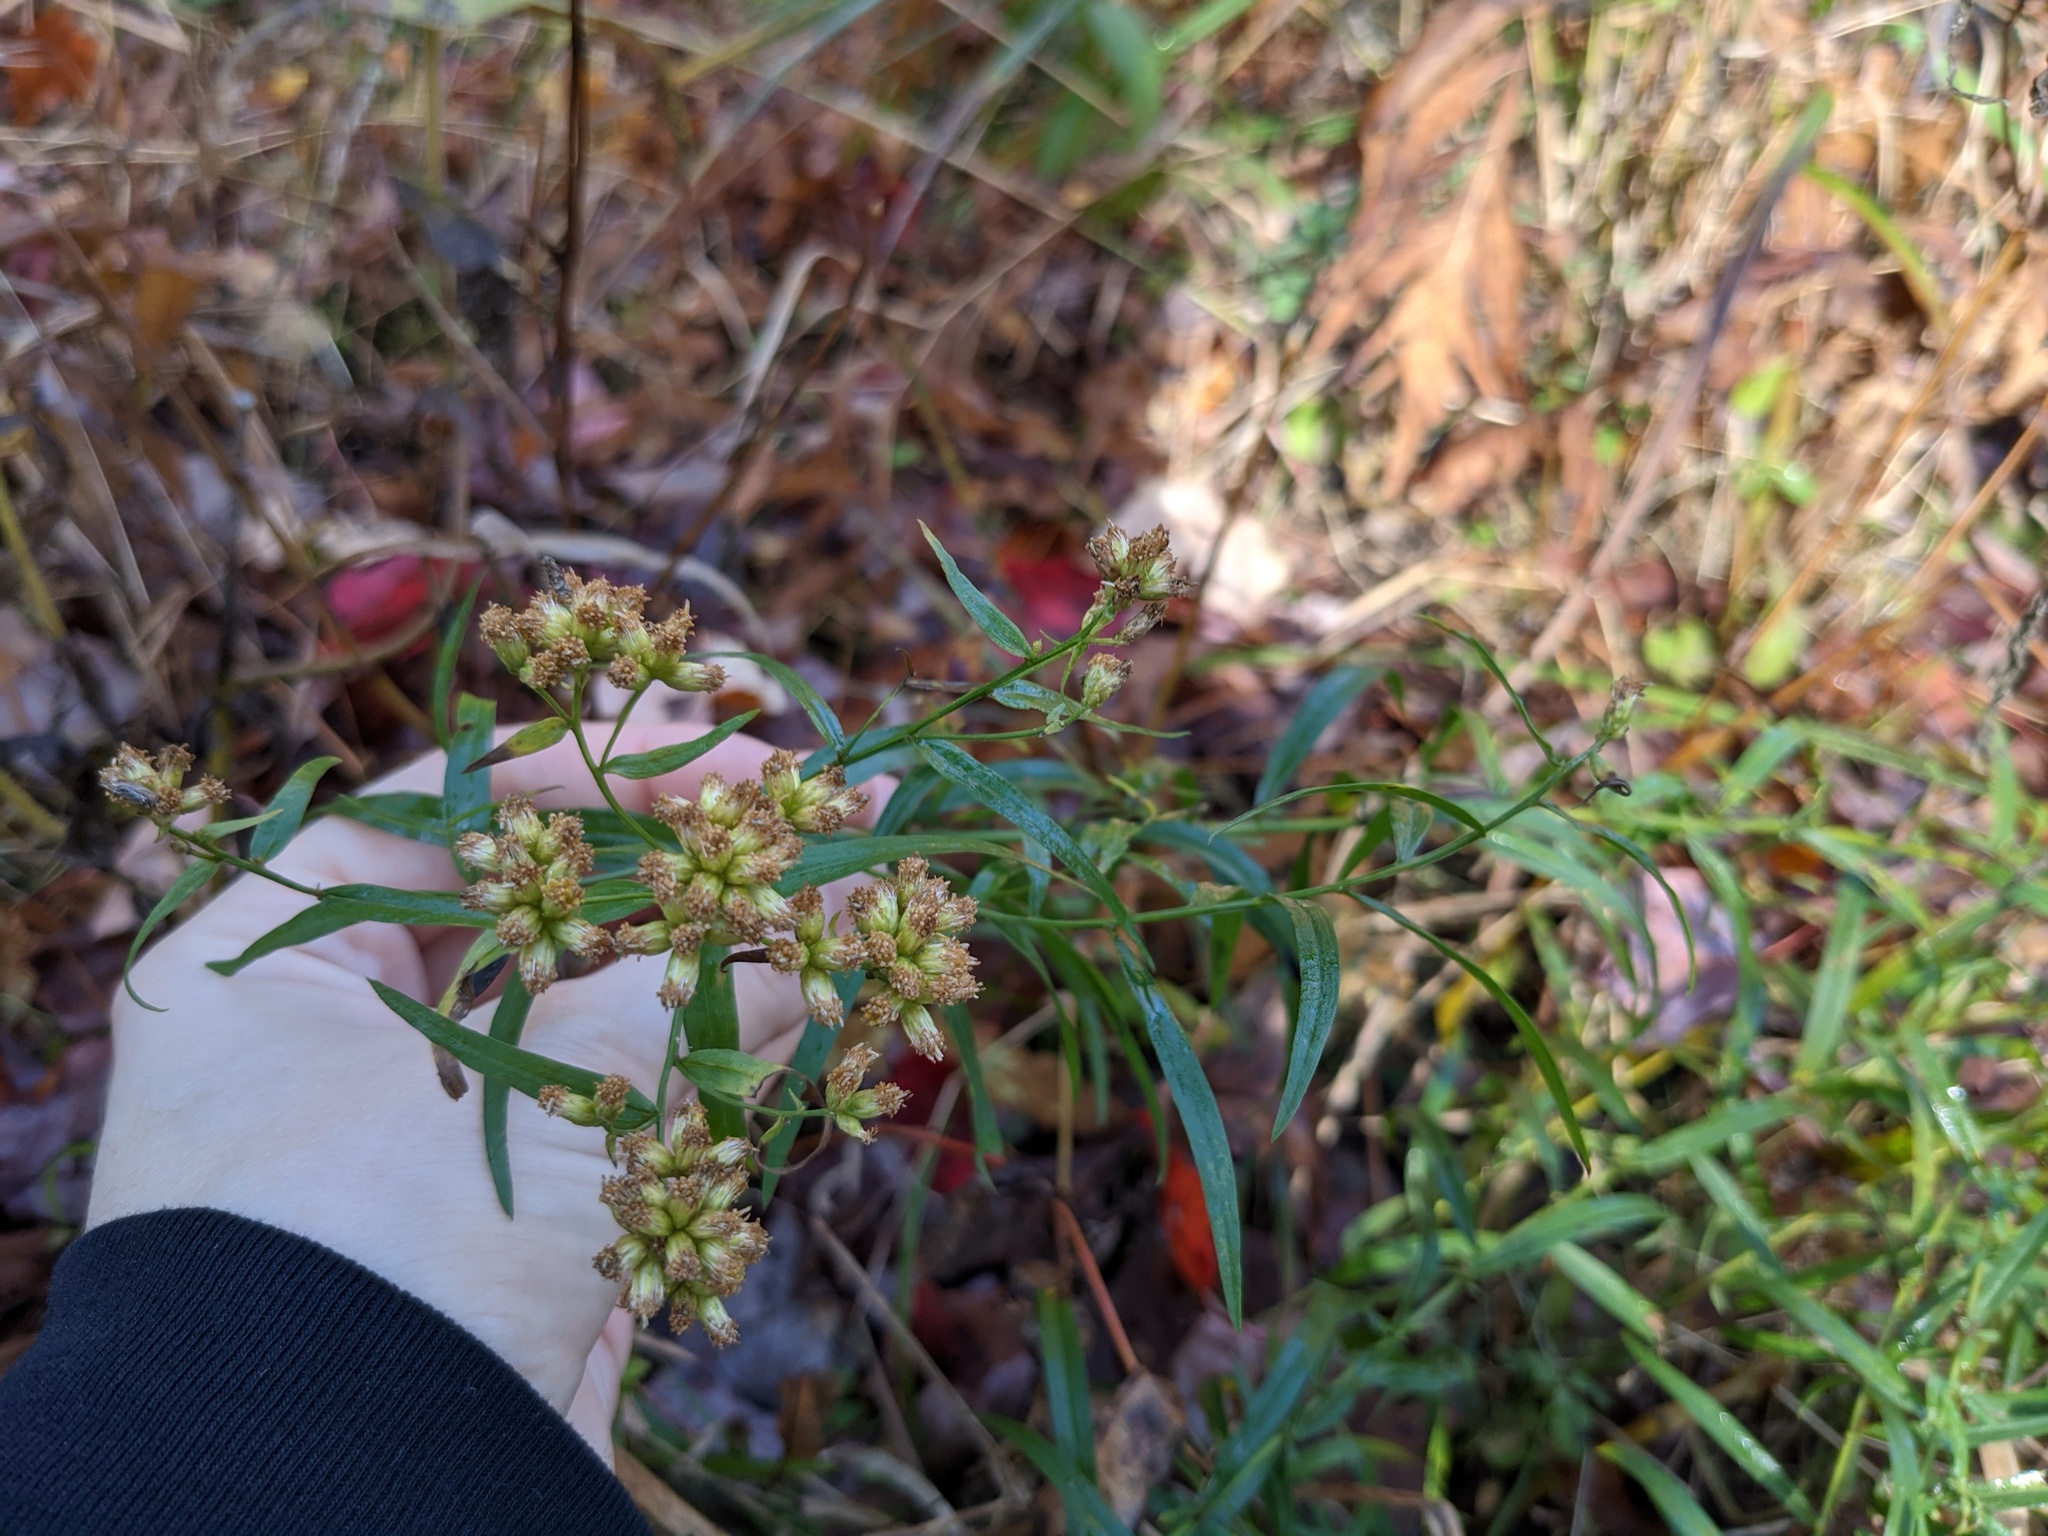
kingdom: Plantae
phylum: Tracheophyta
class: Magnoliopsida
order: Asterales
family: Asteraceae
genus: Euthamia
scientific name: Euthamia graminifolia
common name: Common goldentop
